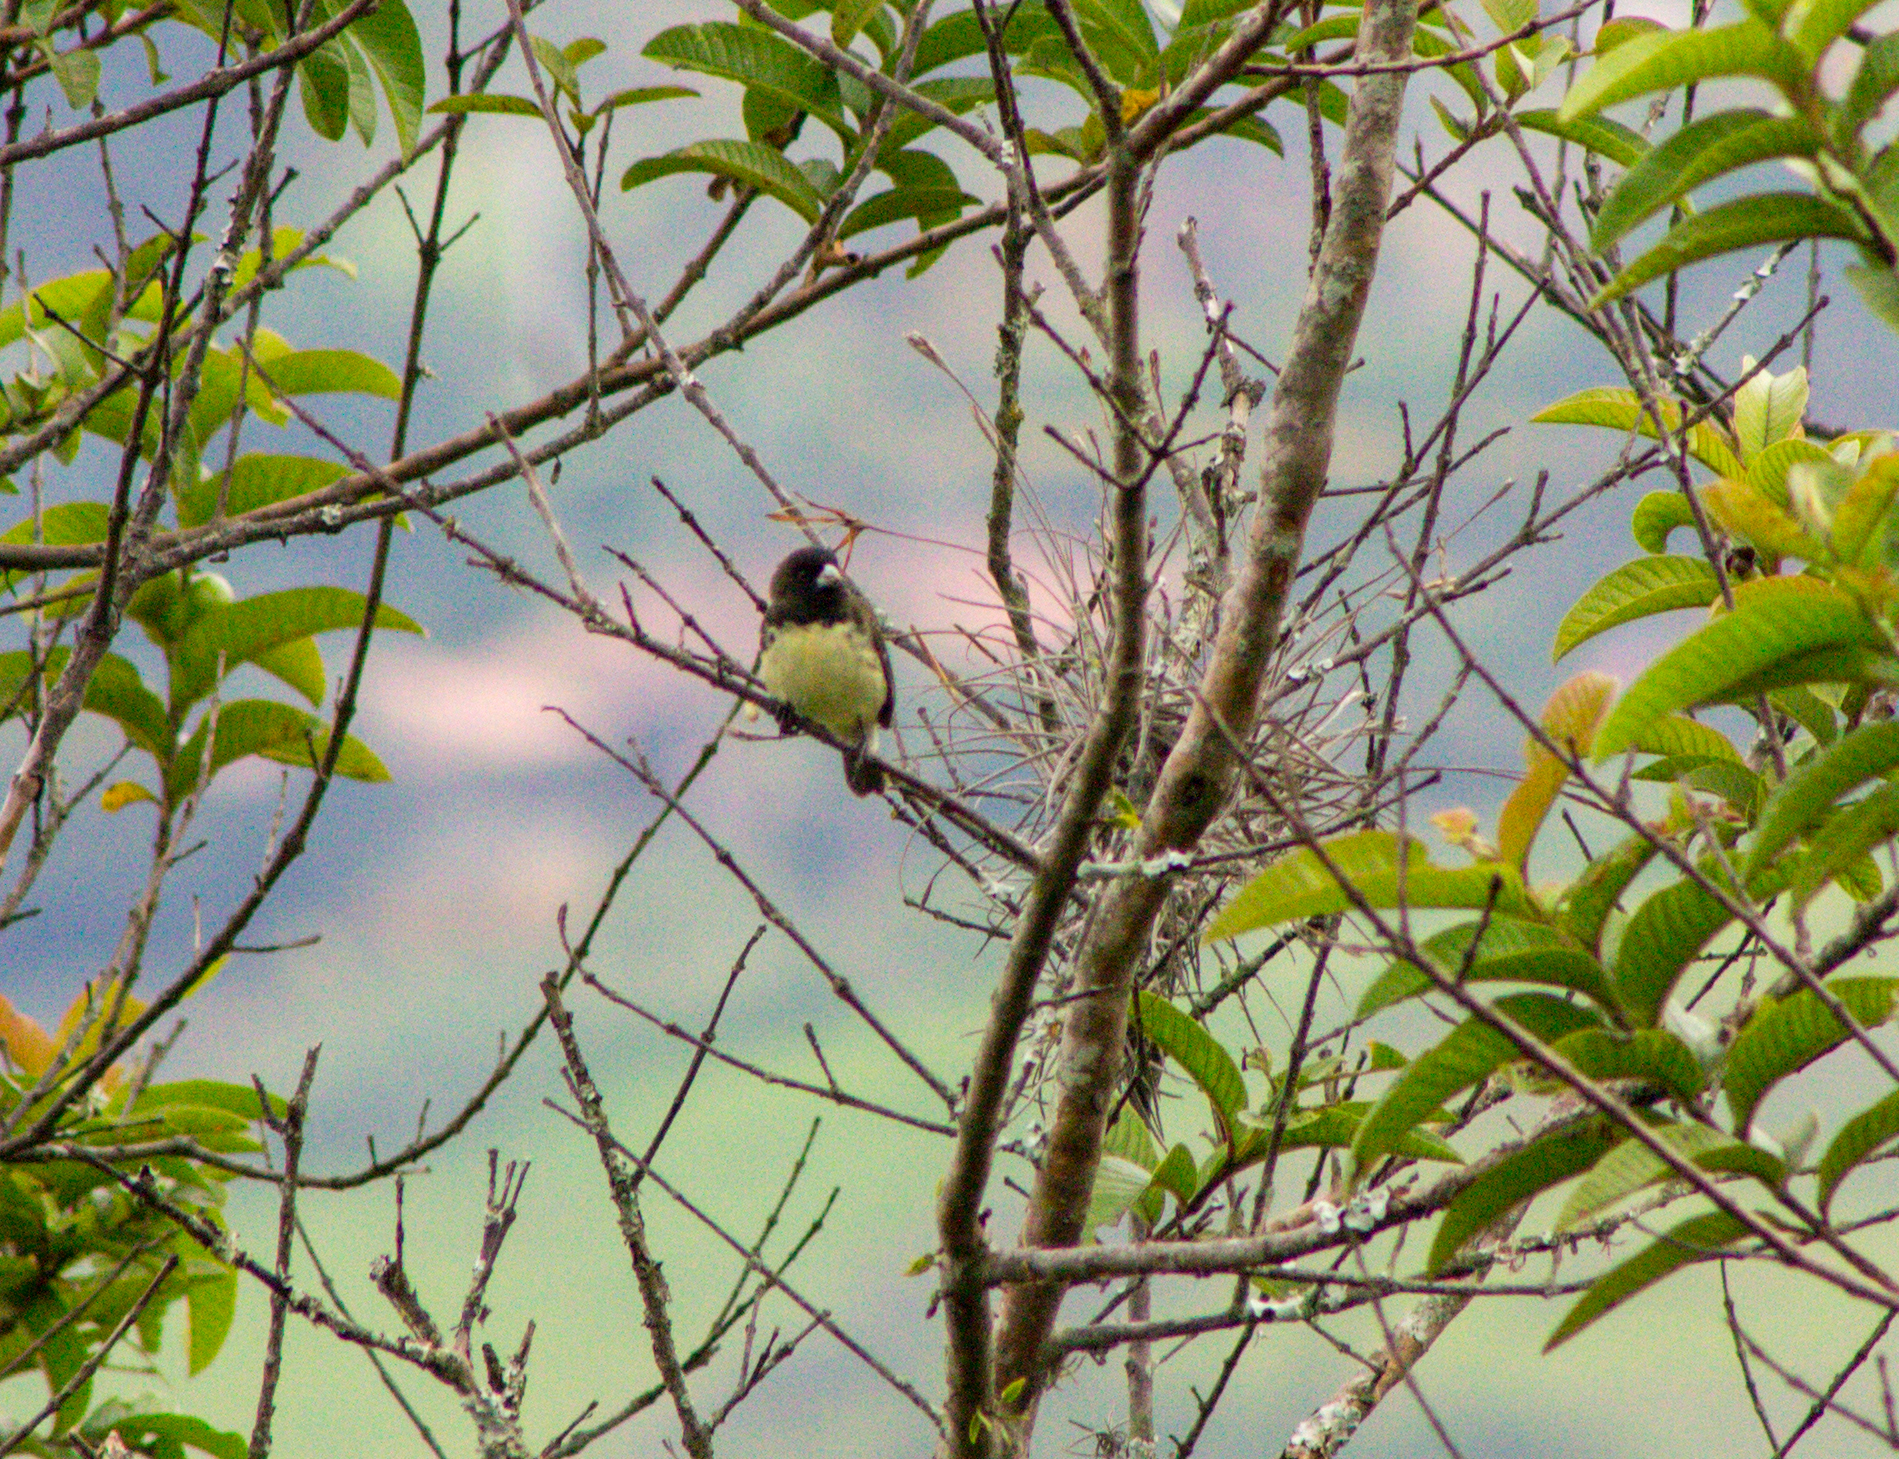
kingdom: Animalia
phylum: Chordata
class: Aves
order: Passeriformes
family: Thraupidae
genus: Sporophila
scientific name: Sporophila nigricollis
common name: Yellow-bellied seedeater
